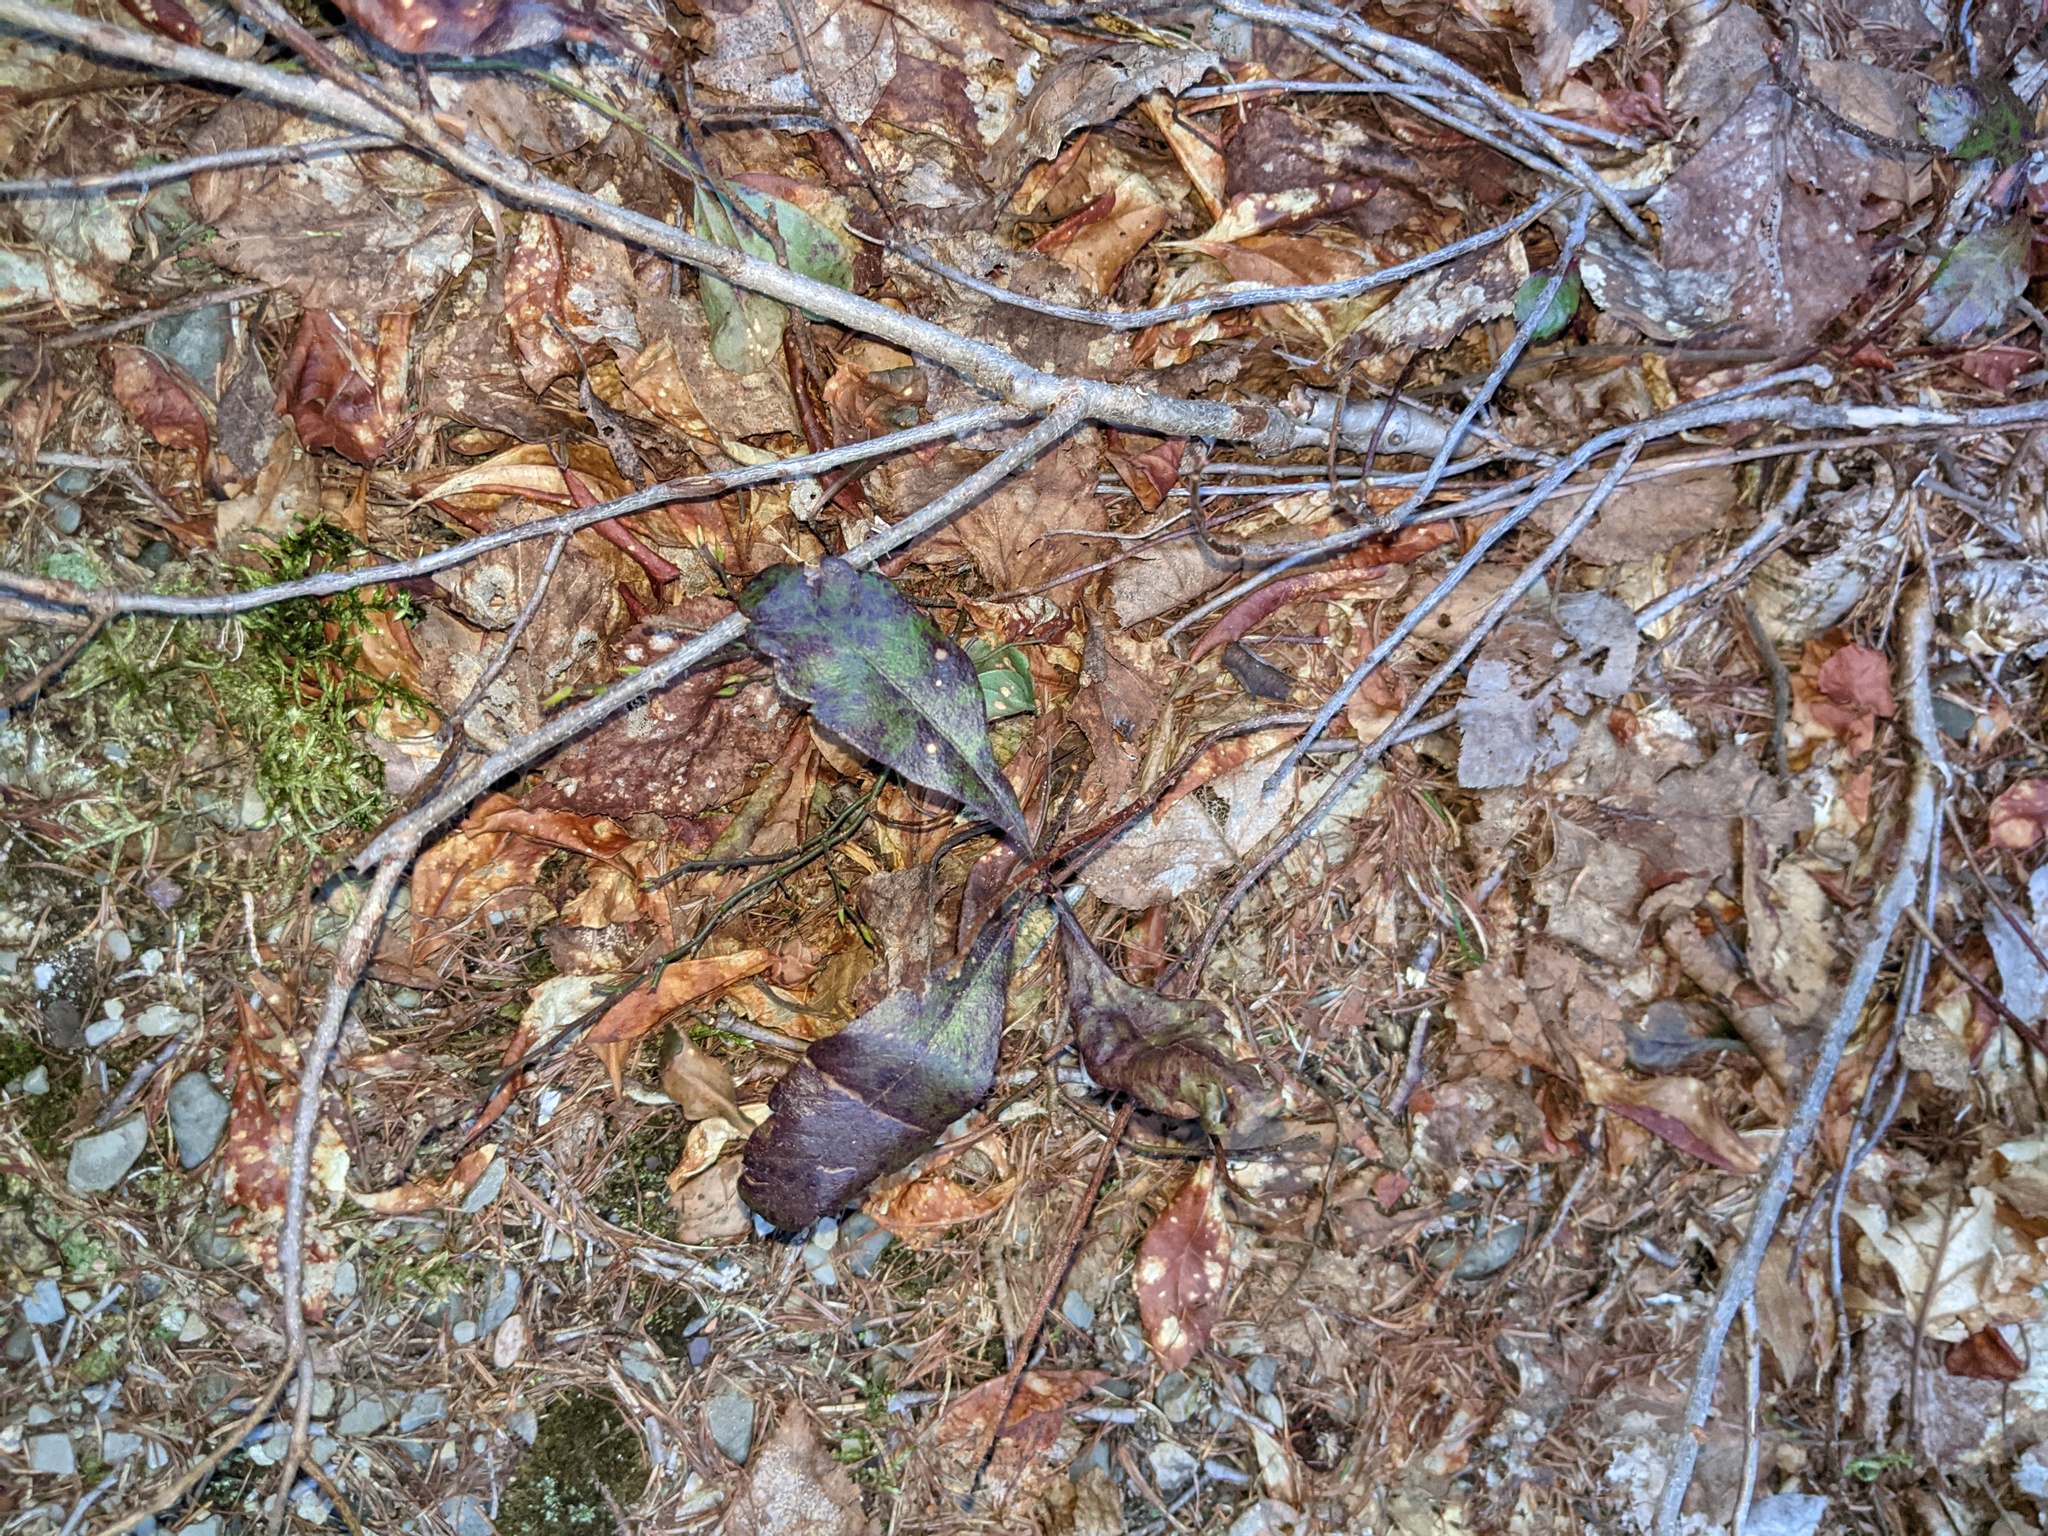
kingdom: Plantae
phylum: Tracheophyta
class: Magnoliopsida
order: Fagales
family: Myricaceae
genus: Morella
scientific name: Morella pensylvanica
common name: Northern bayberry
